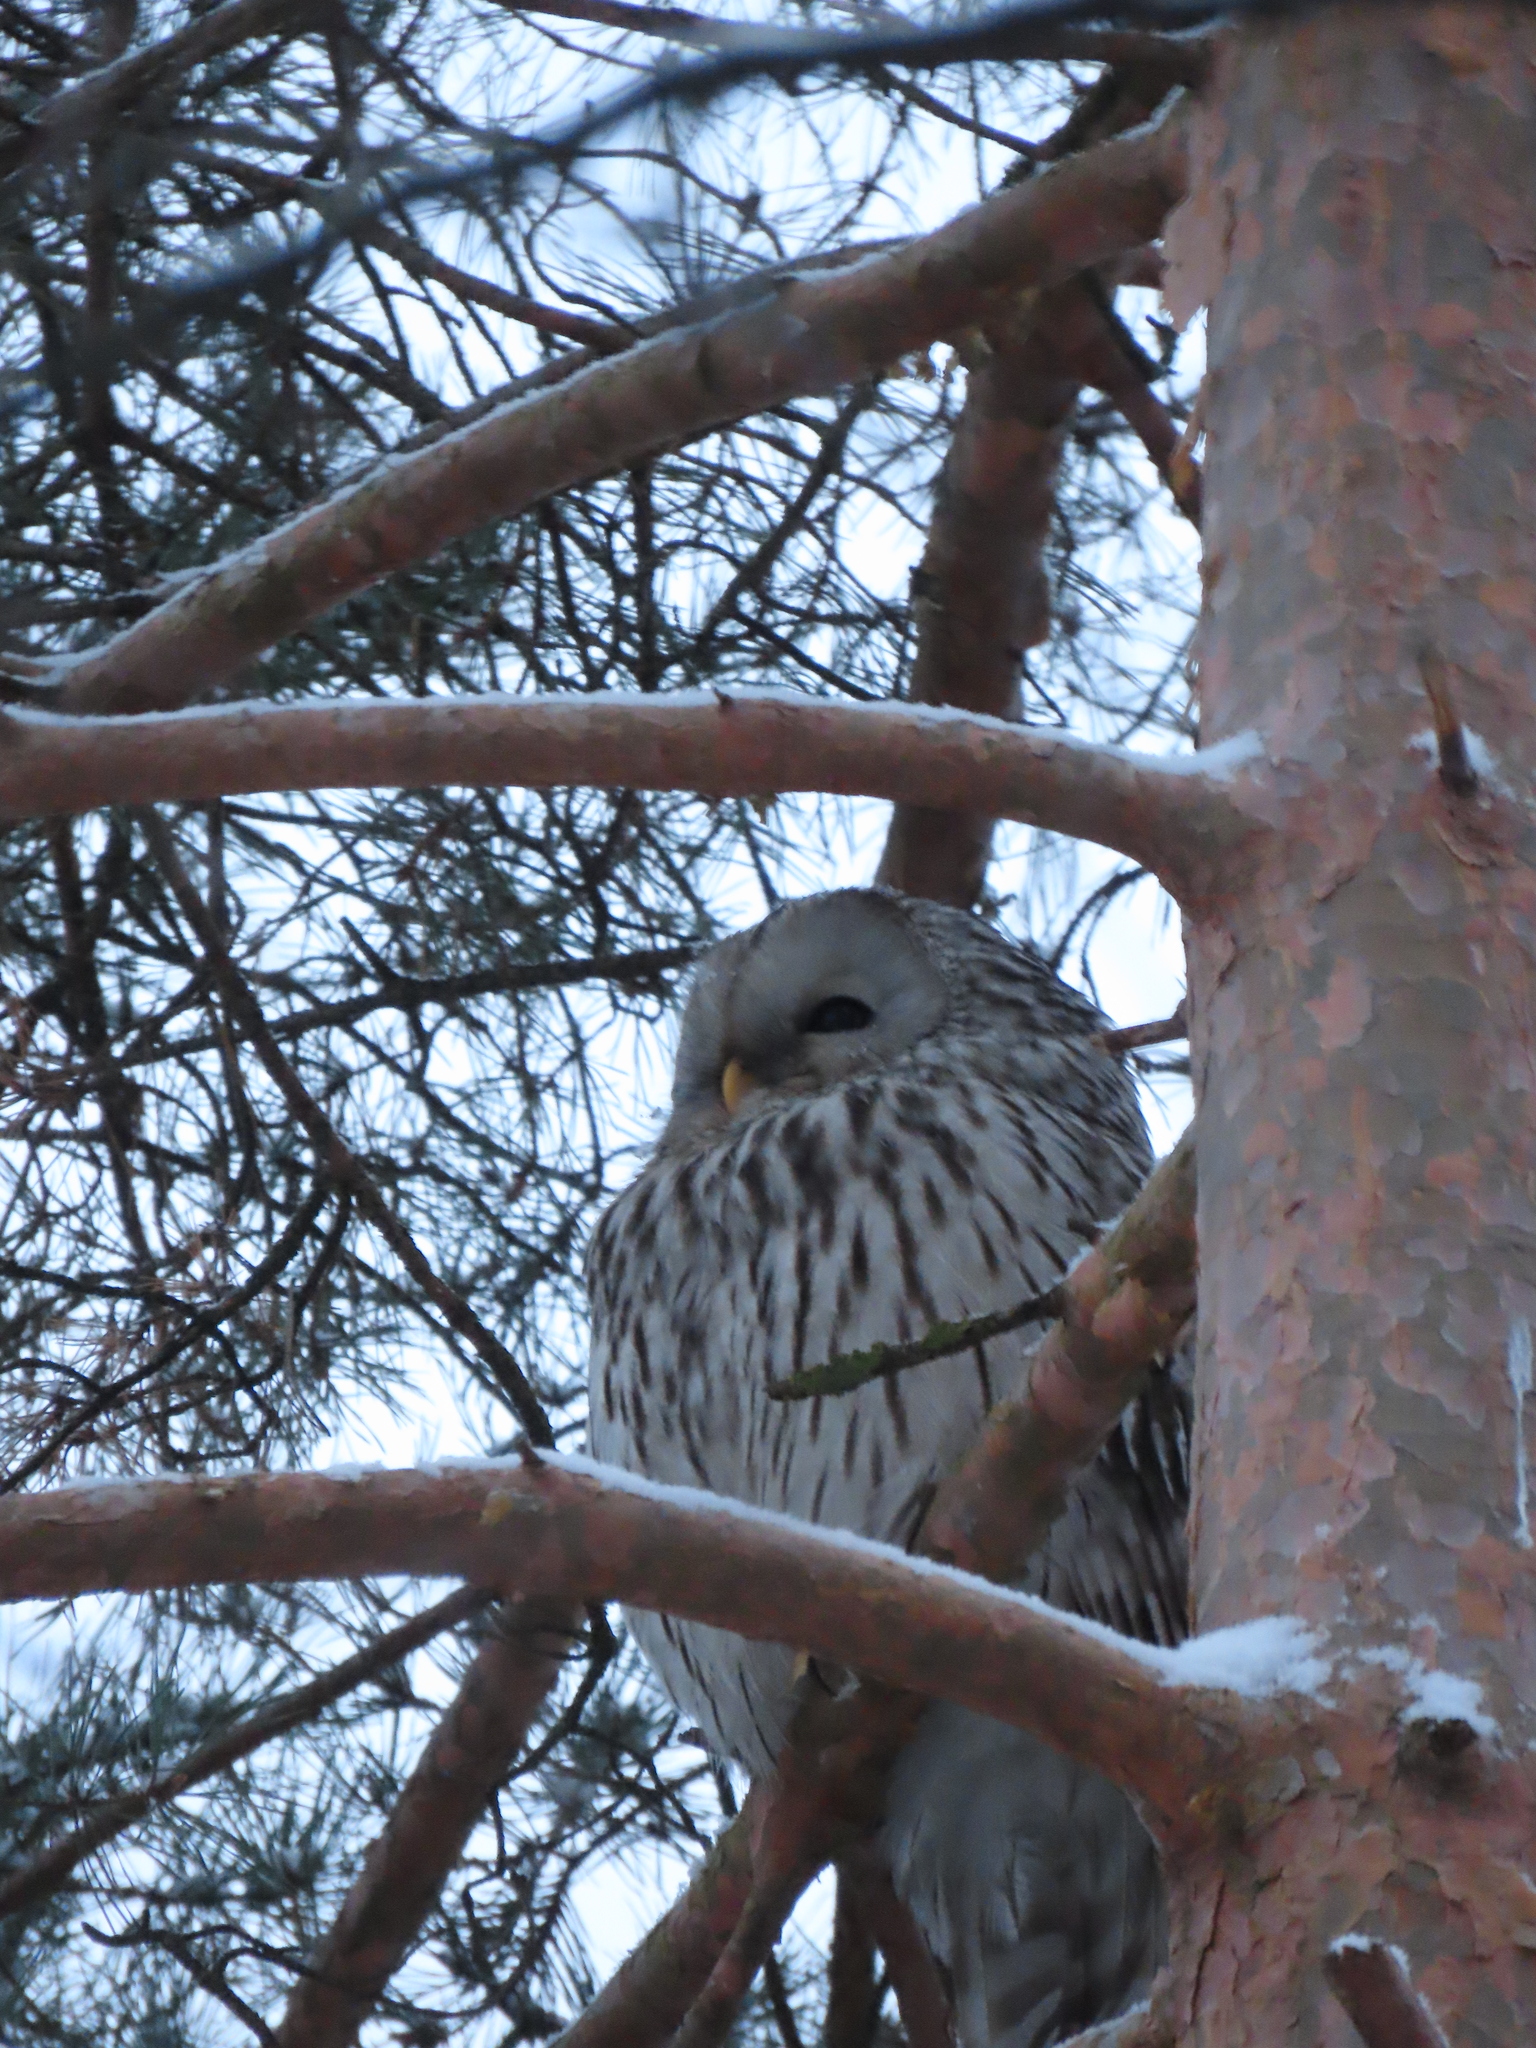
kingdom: Animalia
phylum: Chordata
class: Aves
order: Strigiformes
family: Strigidae
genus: Strix
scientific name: Strix uralensis
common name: Ural owl
